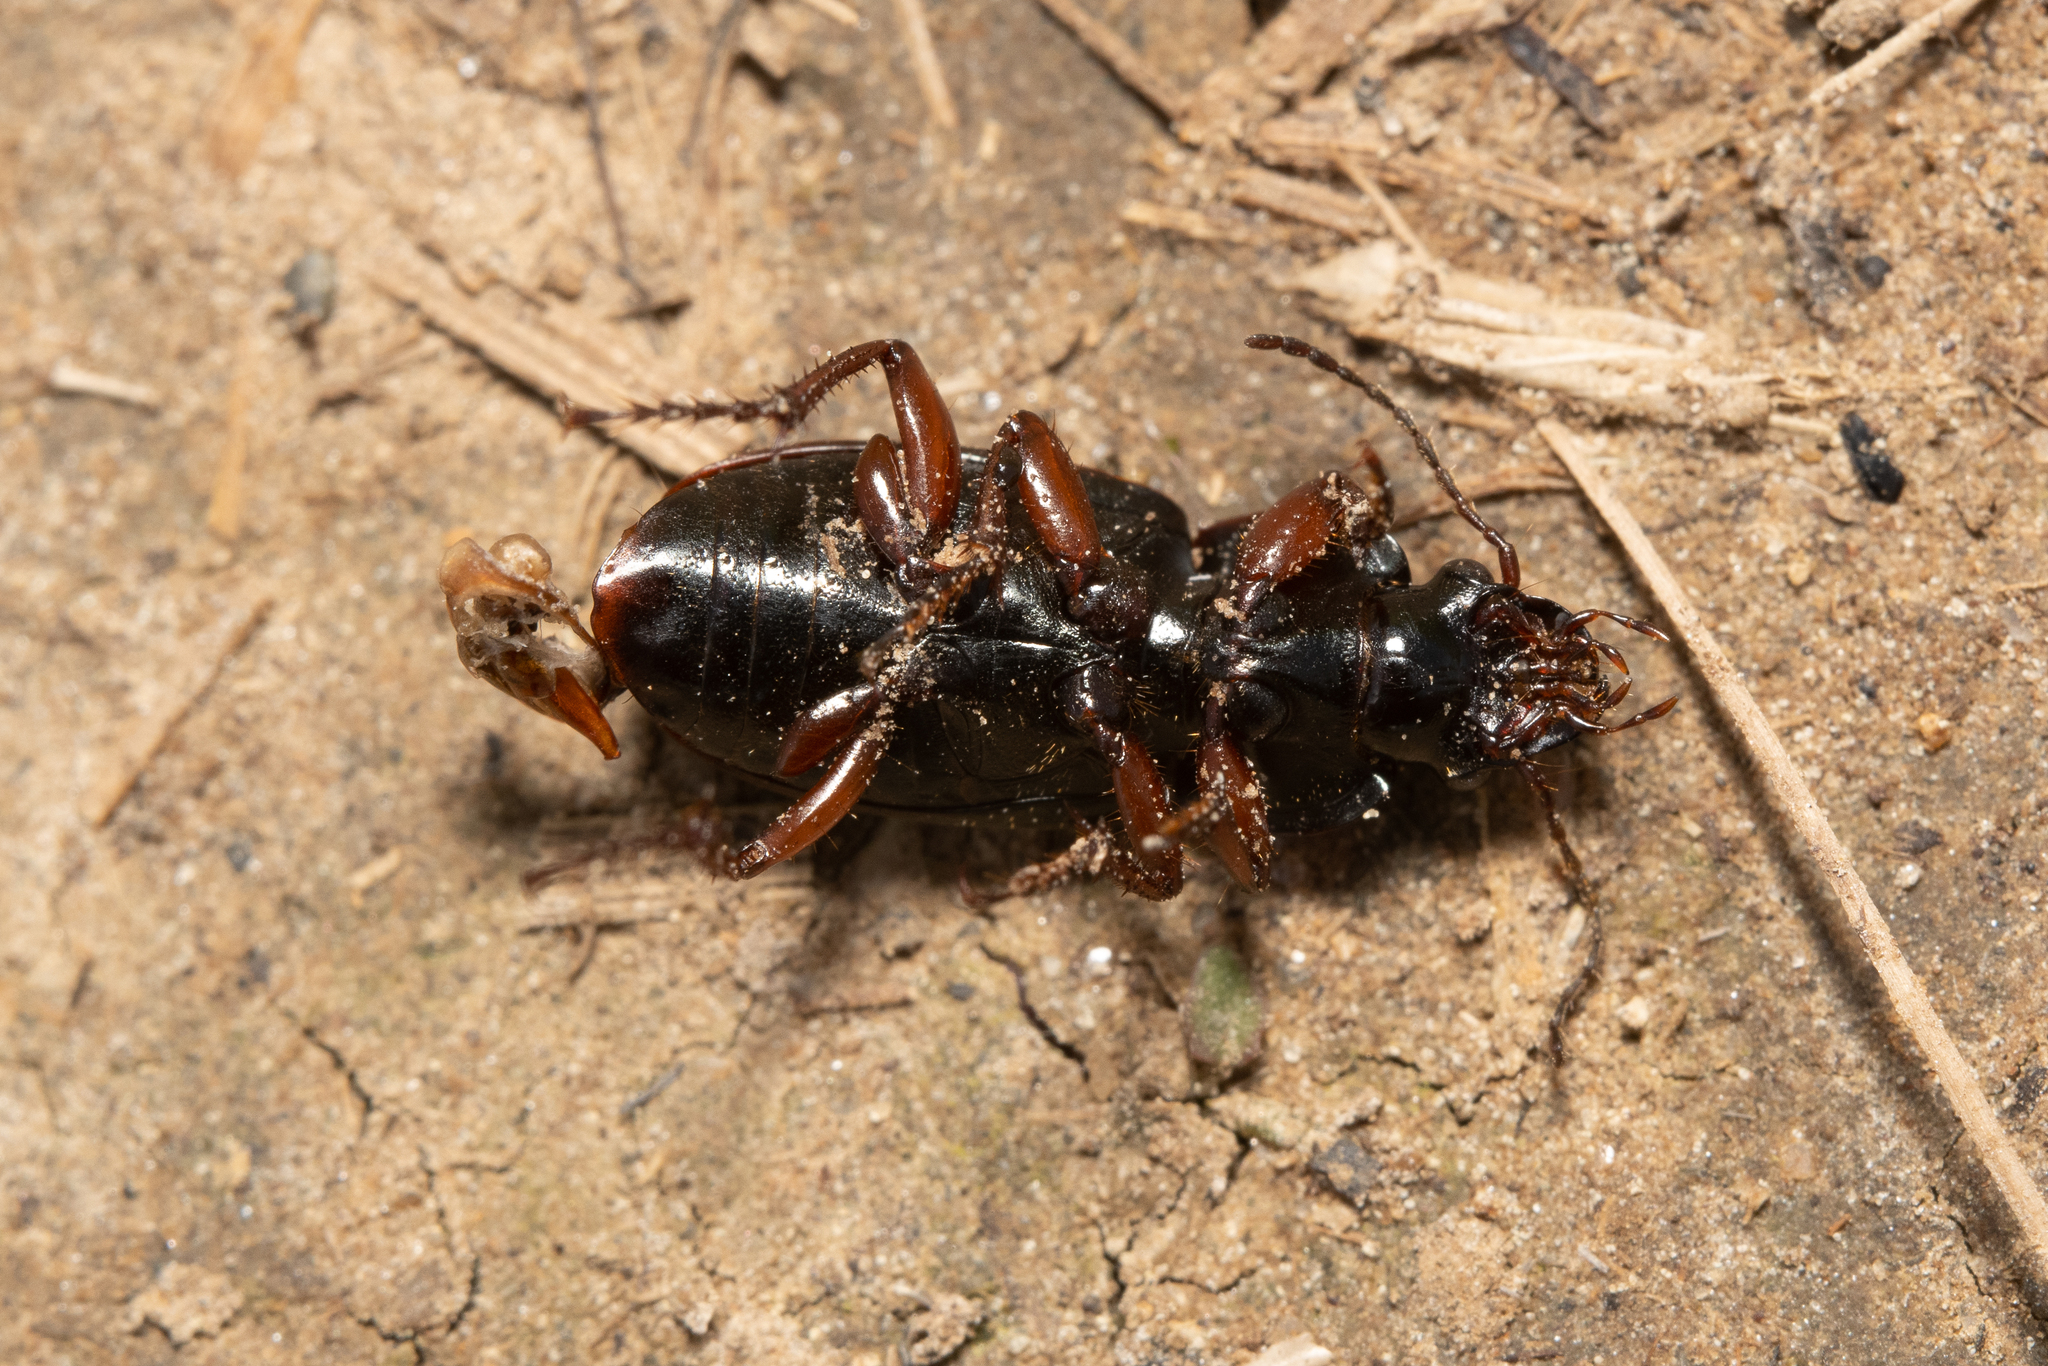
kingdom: Animalia
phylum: Arthropoda
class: Insecta
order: Coleoptera
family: Carabidae
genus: Harpalus
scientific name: Harpalus affinis
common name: Polychrome harp ground beetle
